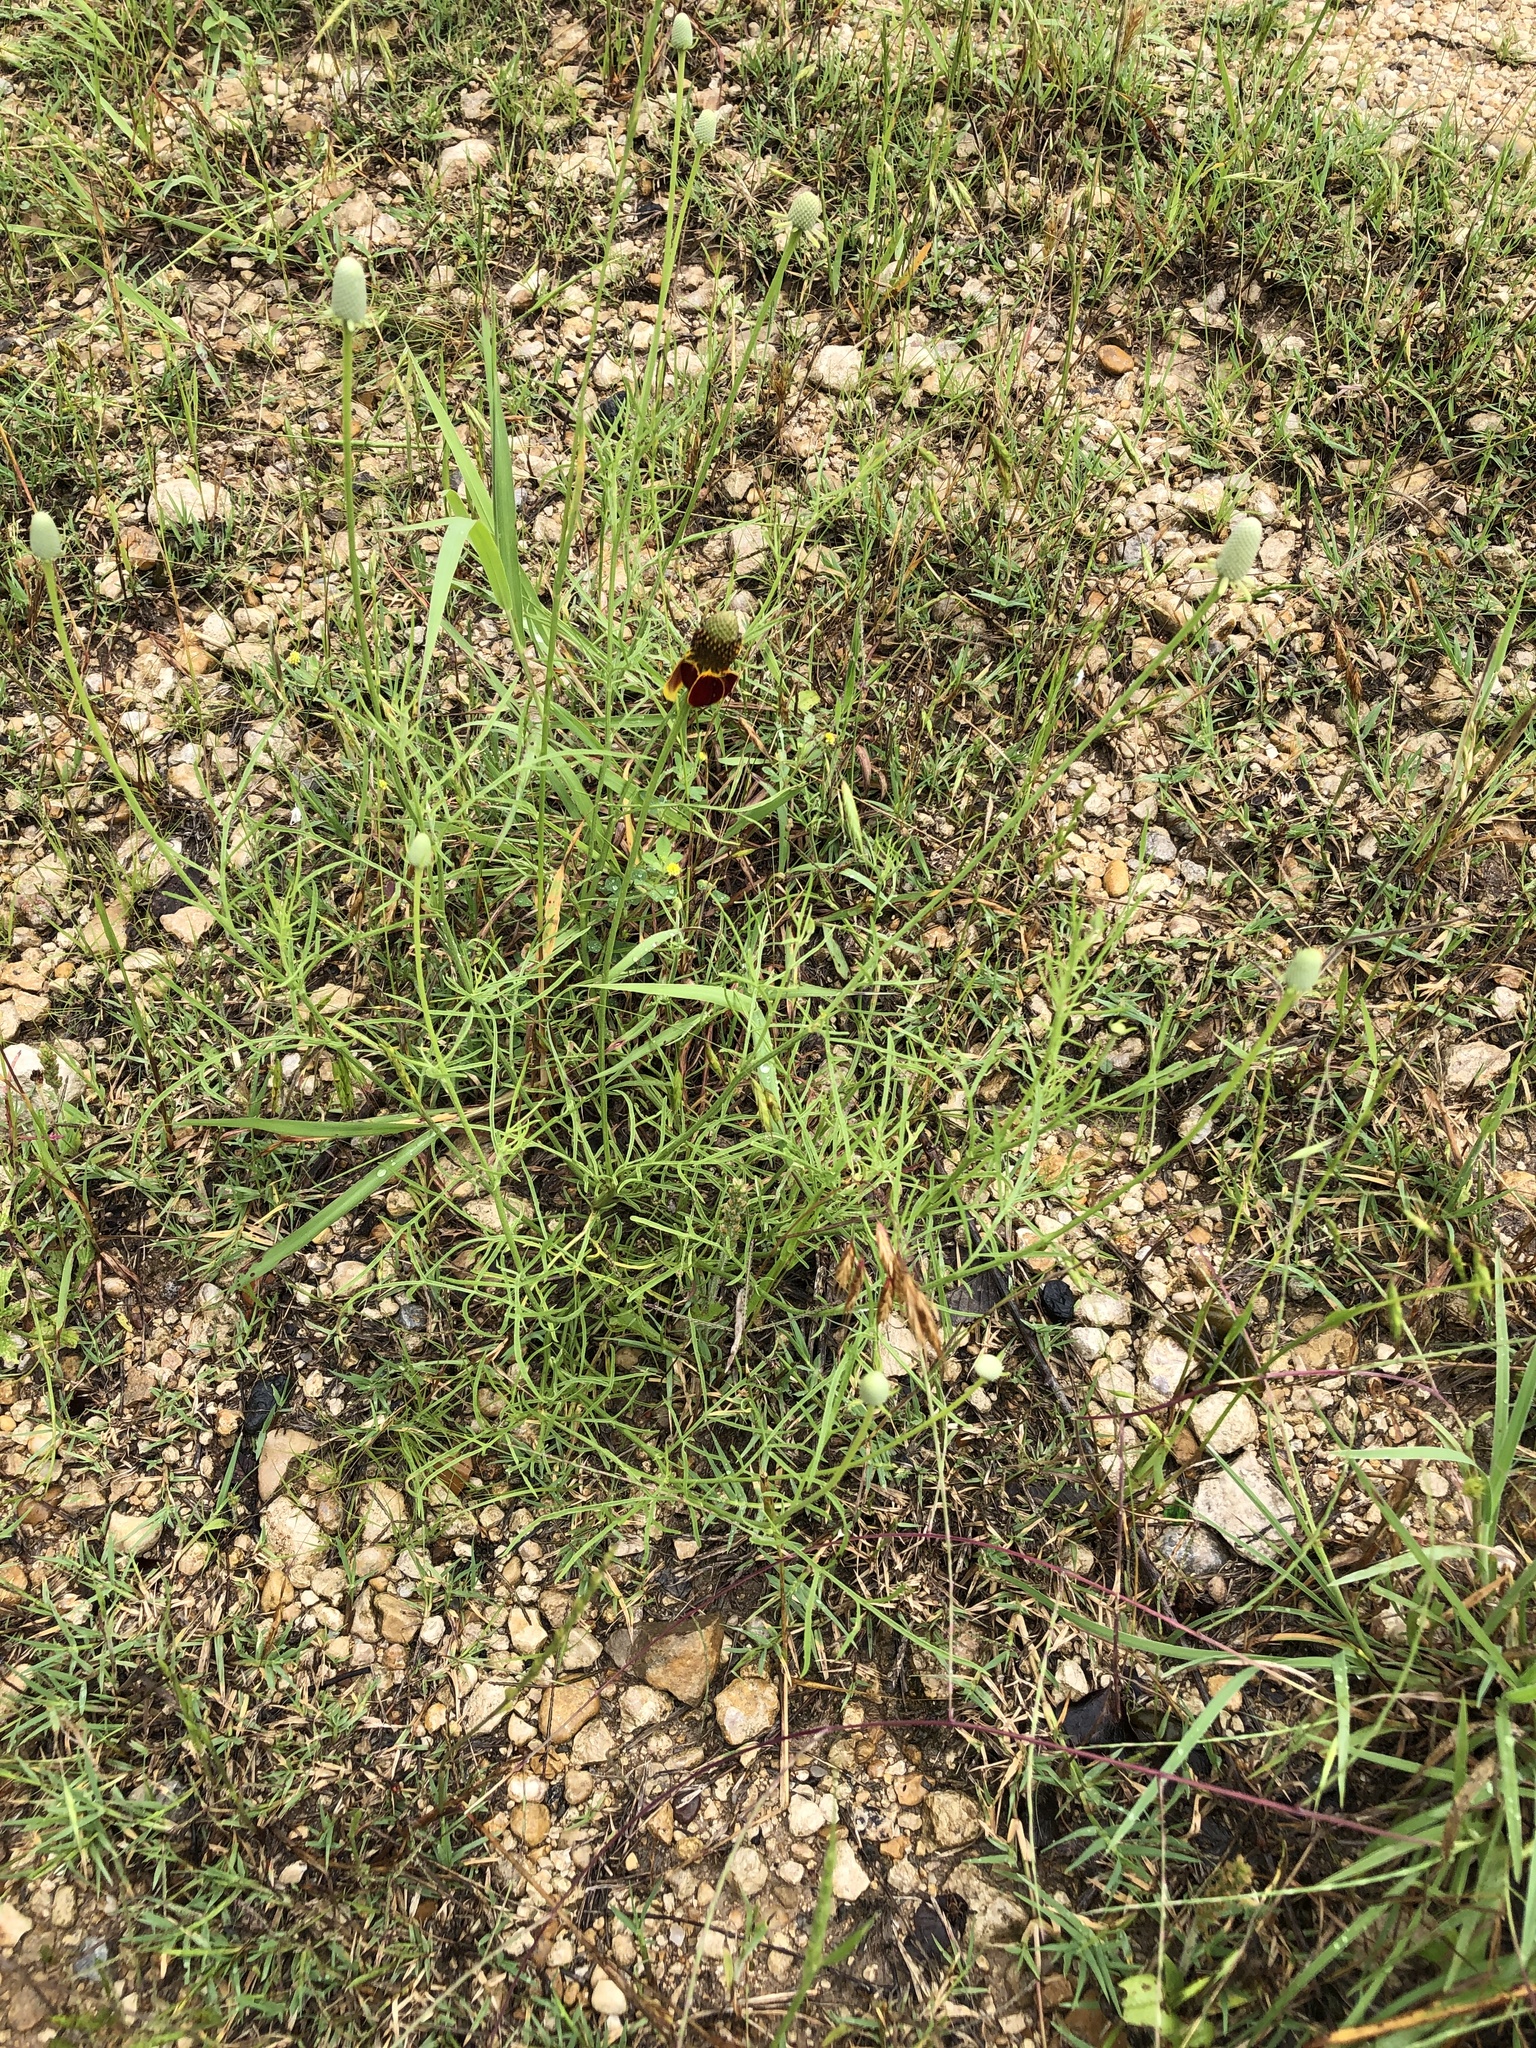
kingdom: Plantae
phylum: Tracheophyta
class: Magnoliopsida
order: Asterales
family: Asteraceae
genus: Ratibida
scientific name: Ratibida columnifera
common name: Prairie coneflower
